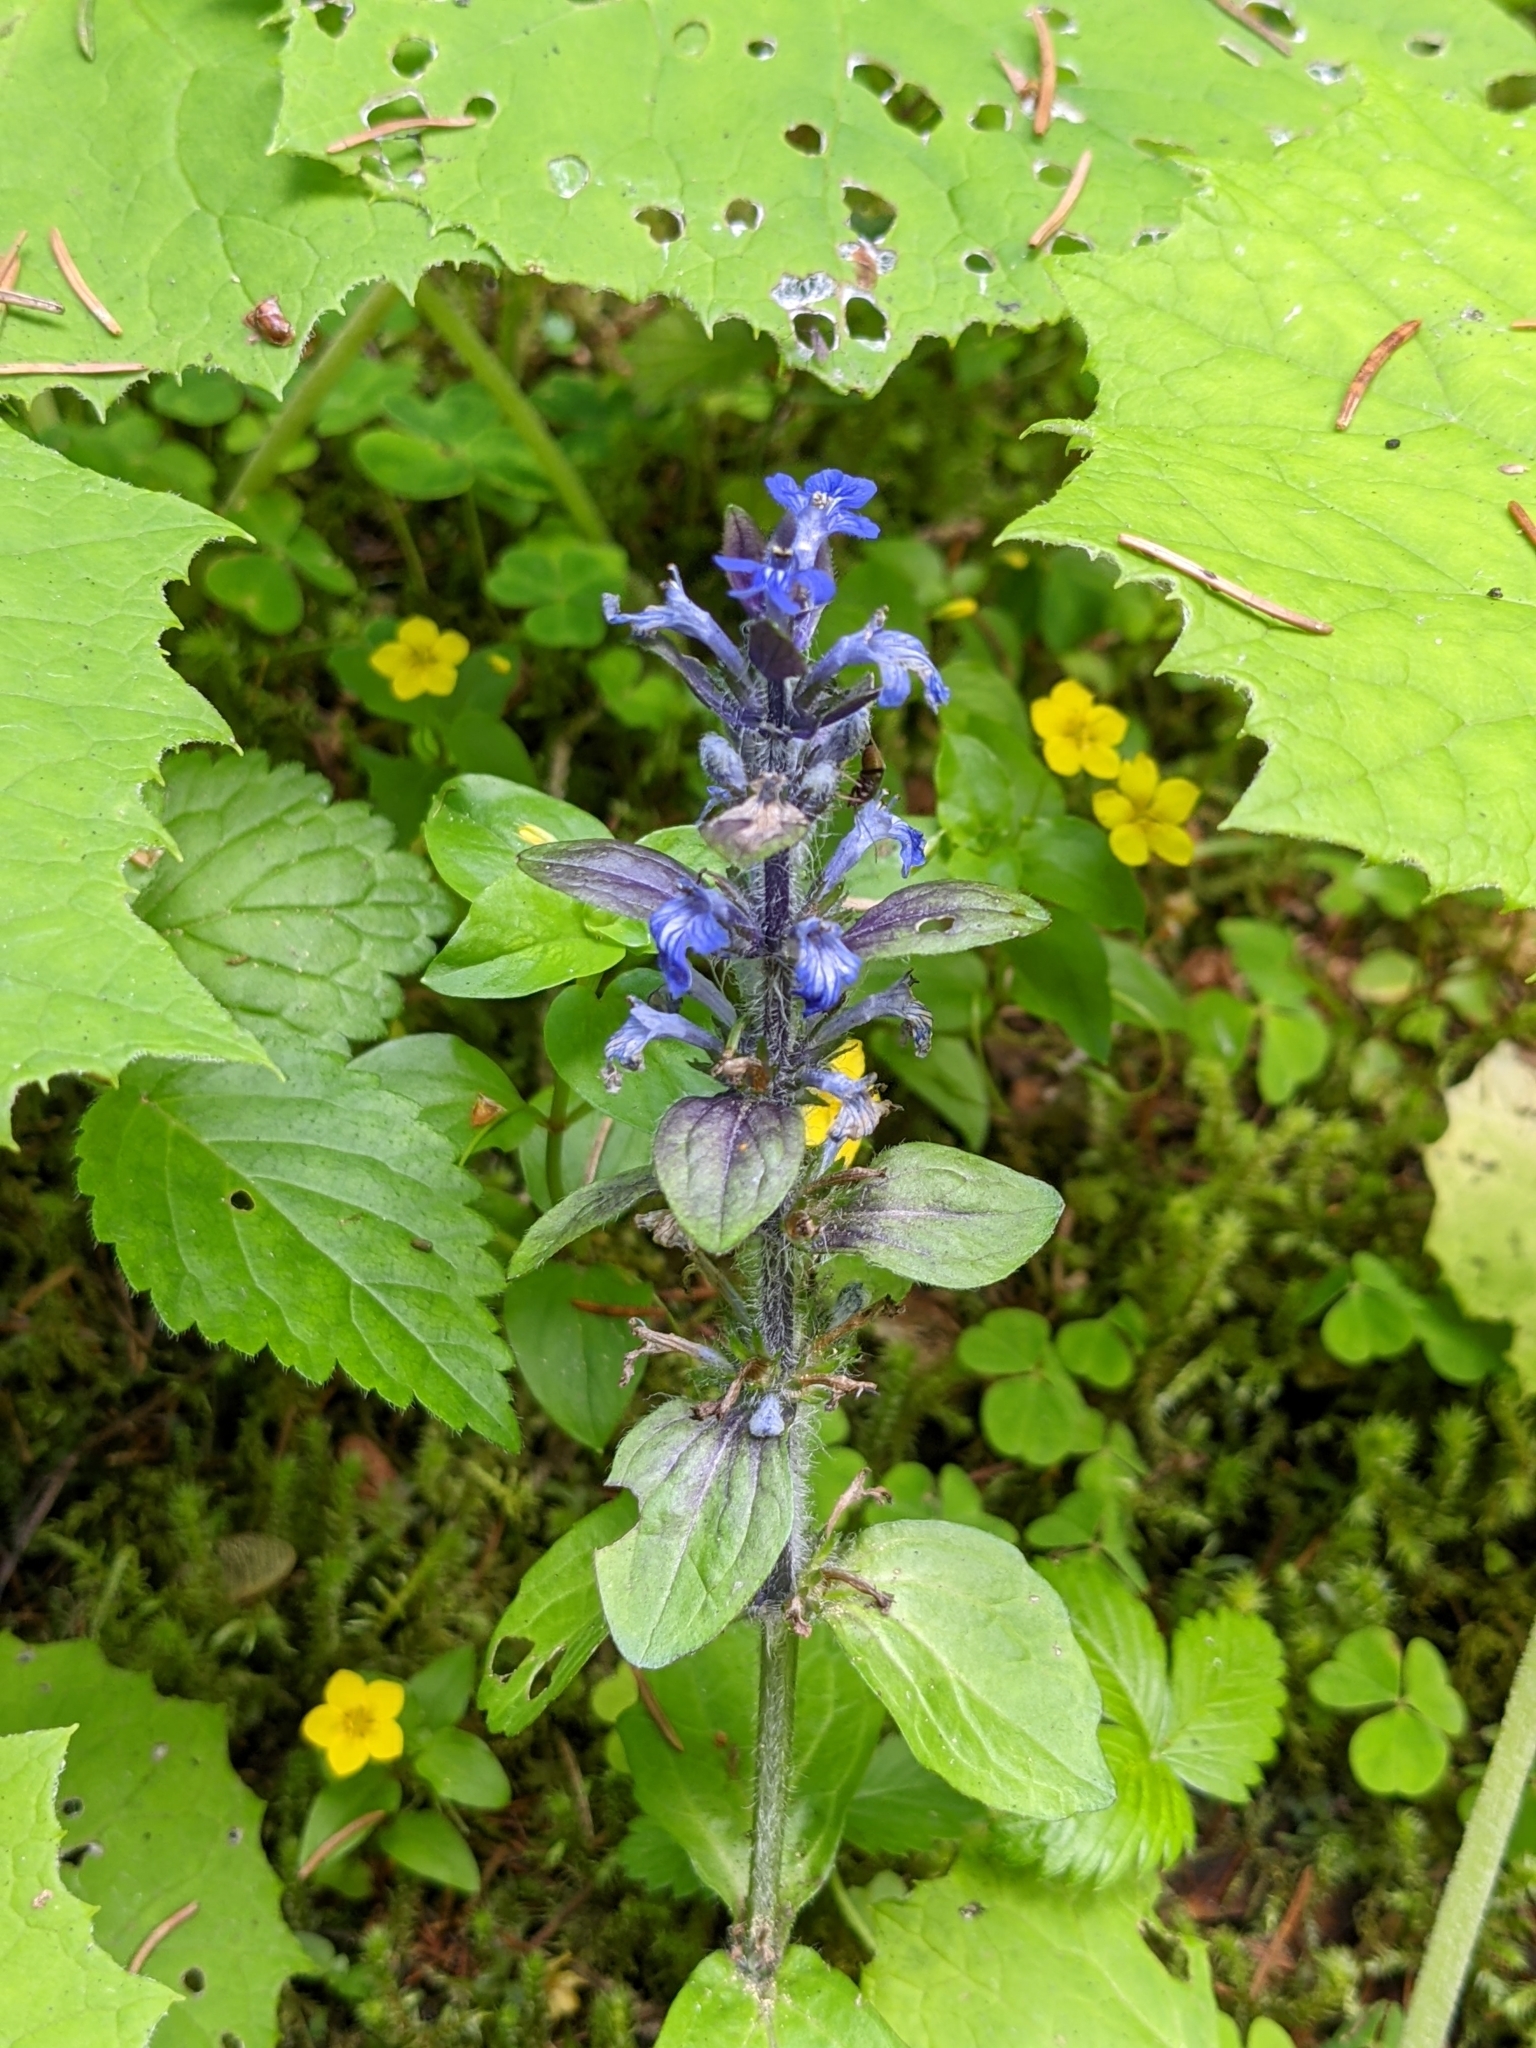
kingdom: Plantae
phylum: Tracheophyta
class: Magnoliopsida
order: Lamiales
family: Lamiaceae
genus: Ajuga
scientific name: Ajuga reptans
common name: Bugle
